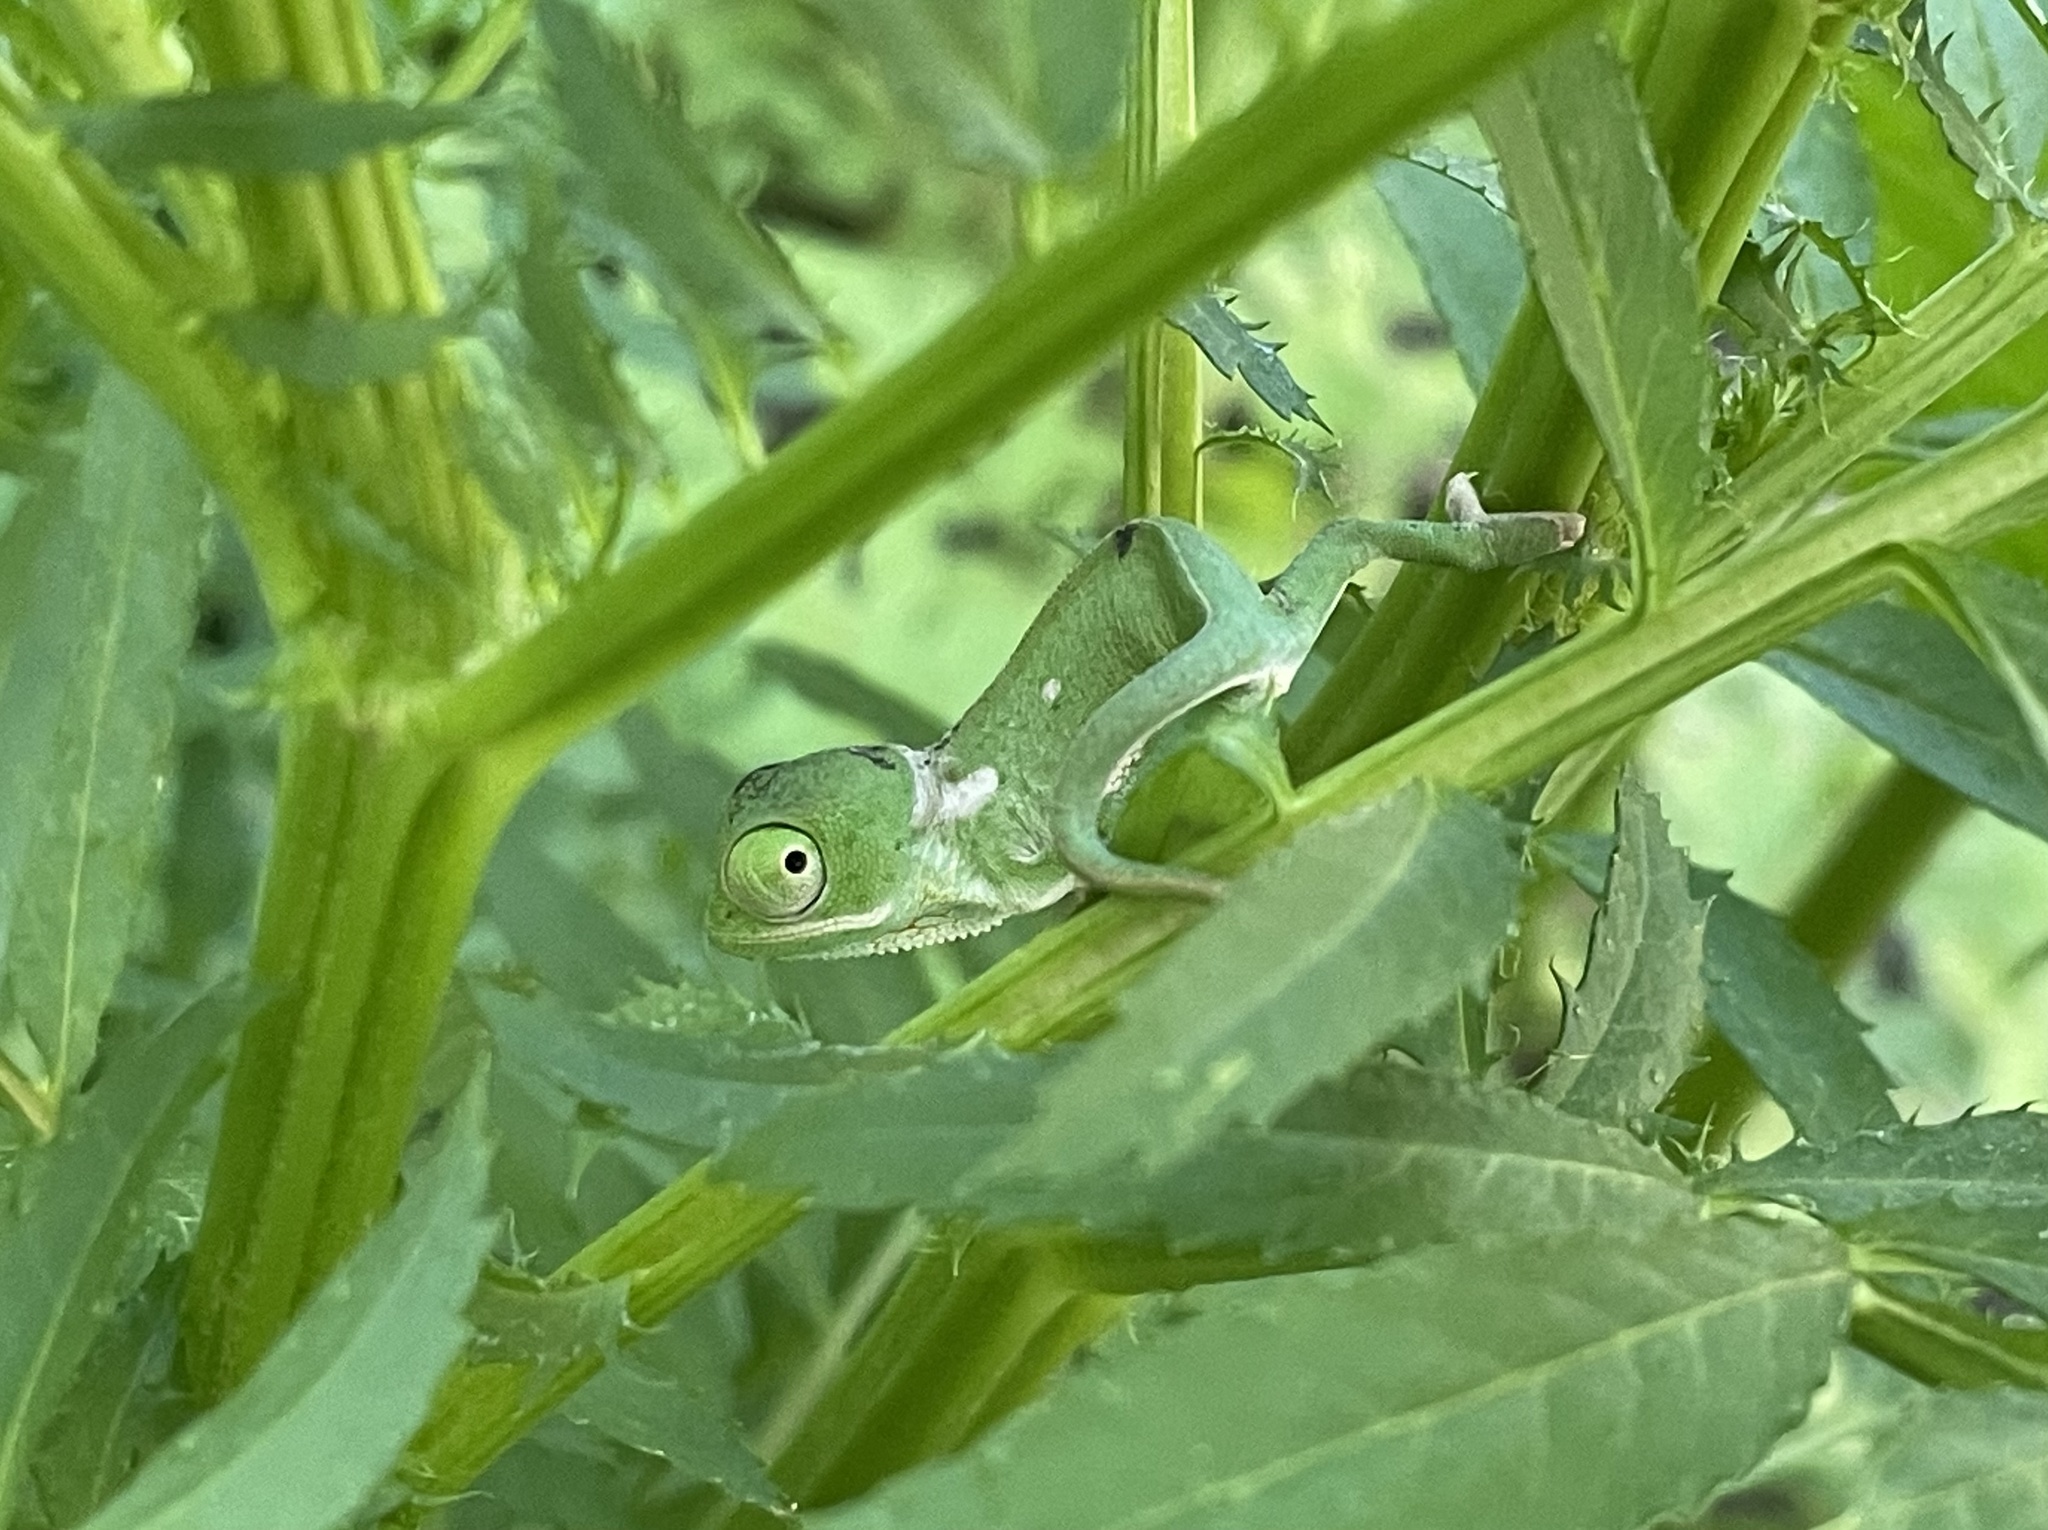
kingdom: Animalia
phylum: Chordata
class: Squamata
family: Chamaeleonidae
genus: Chamaeleo
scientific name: Chamaeleo dilepis
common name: Flapneck chameleon
